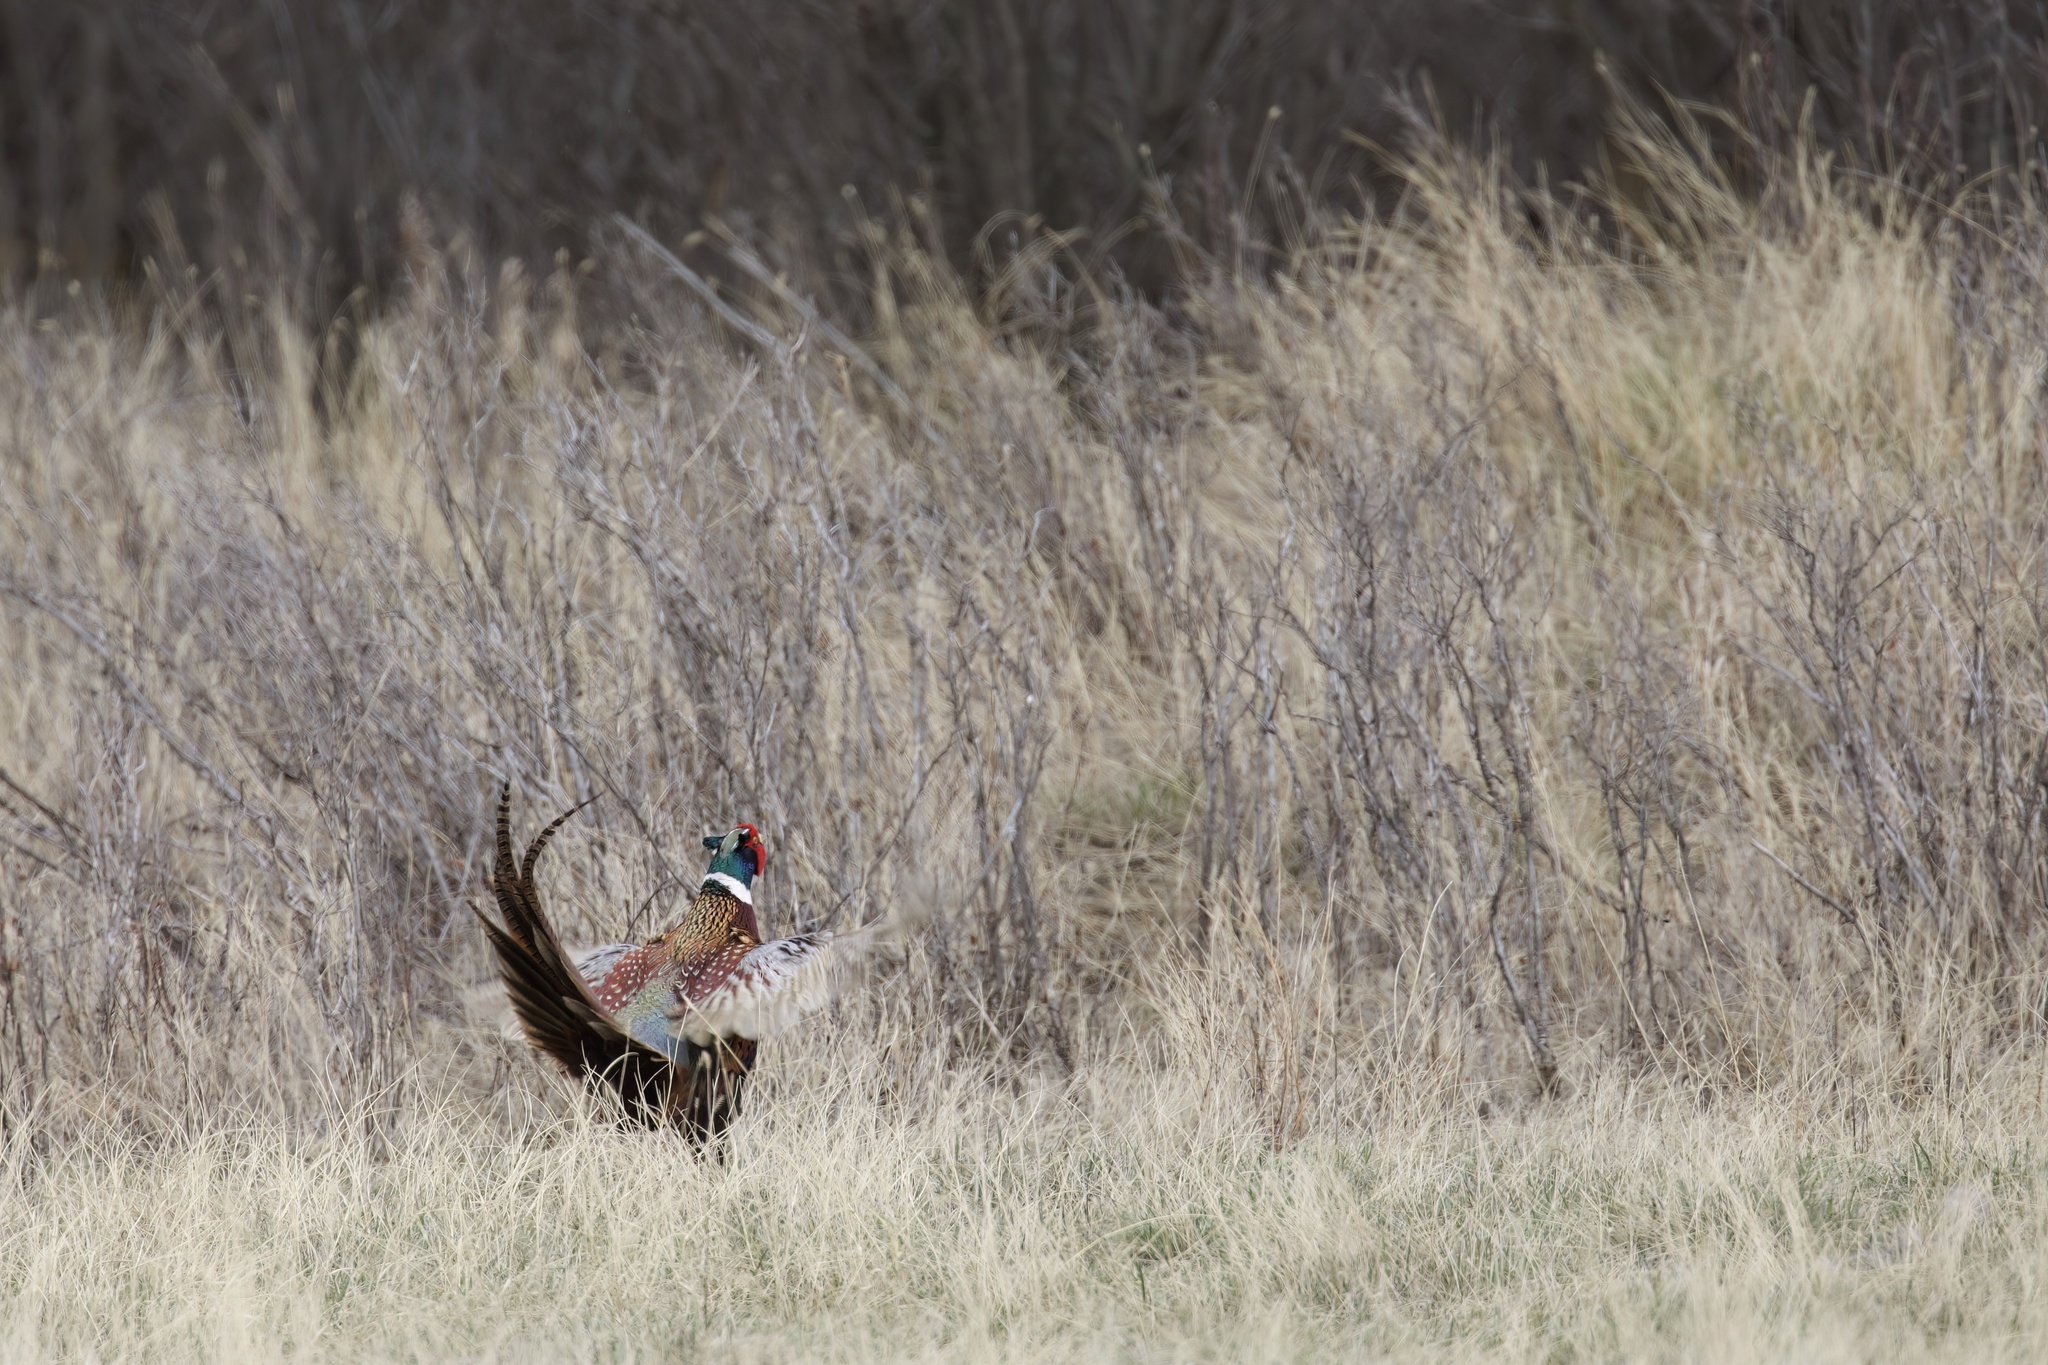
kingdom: Animalia
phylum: Chordata
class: Aves
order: Galliformes
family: Phasianidae
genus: Phasianus
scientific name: Phasianus colchicus
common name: Common pheasant
